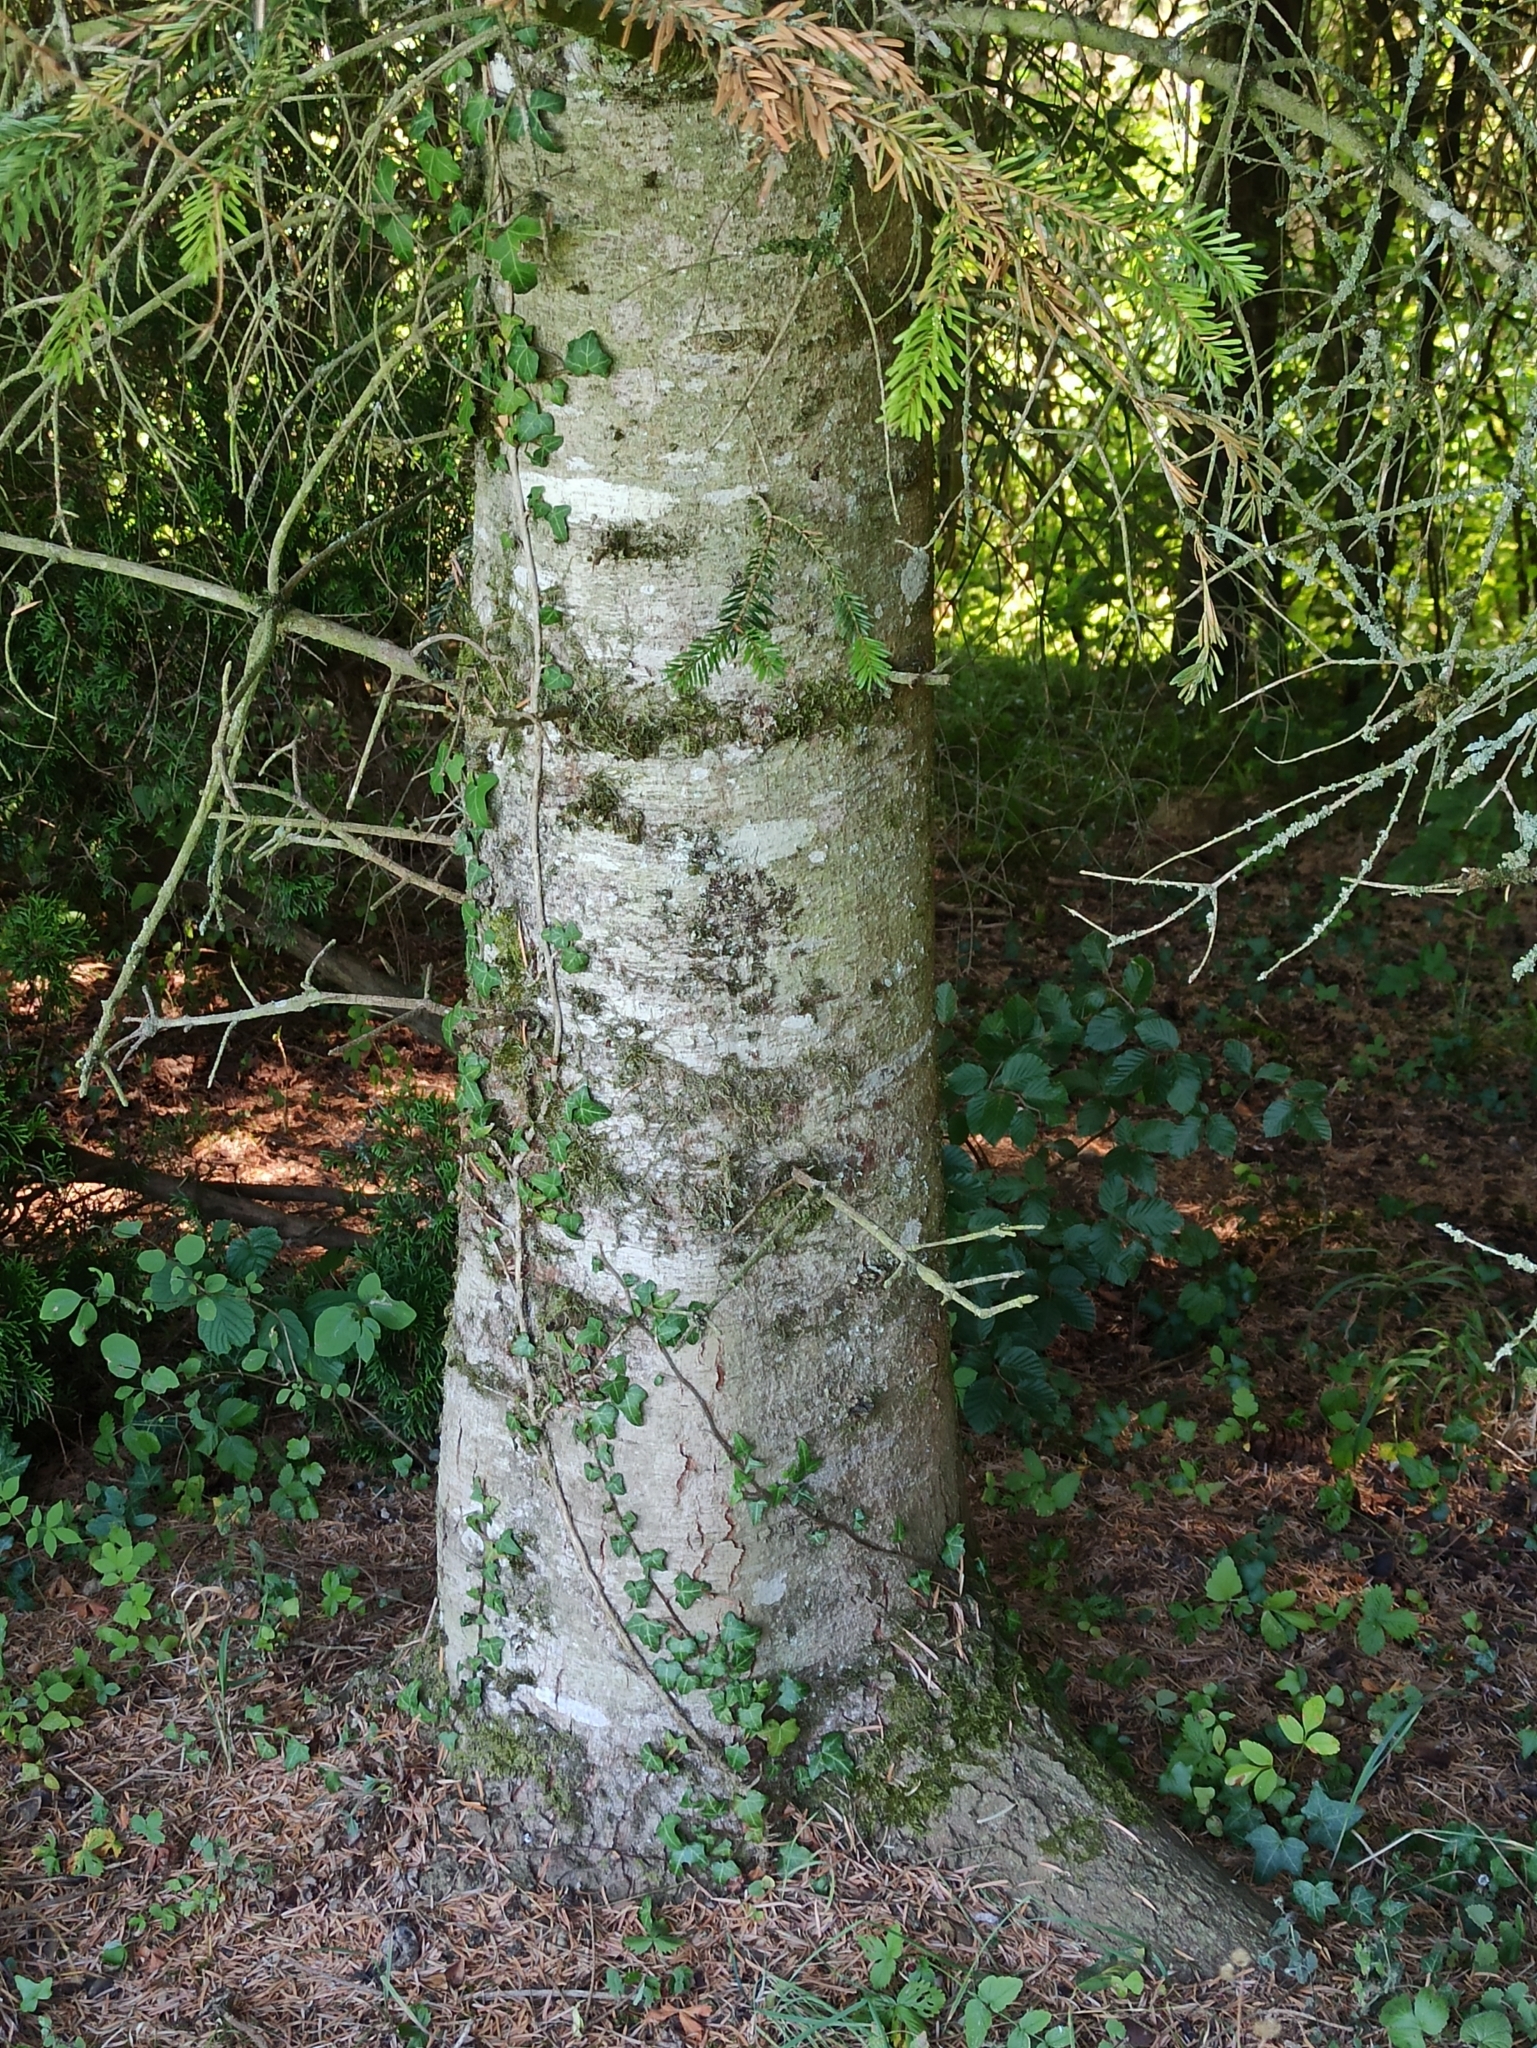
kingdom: Plantae
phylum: Tracheophyta
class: Pinopsida
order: Pinales
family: Pinaceae
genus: Abies
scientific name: Abies alba
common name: Silver fir
